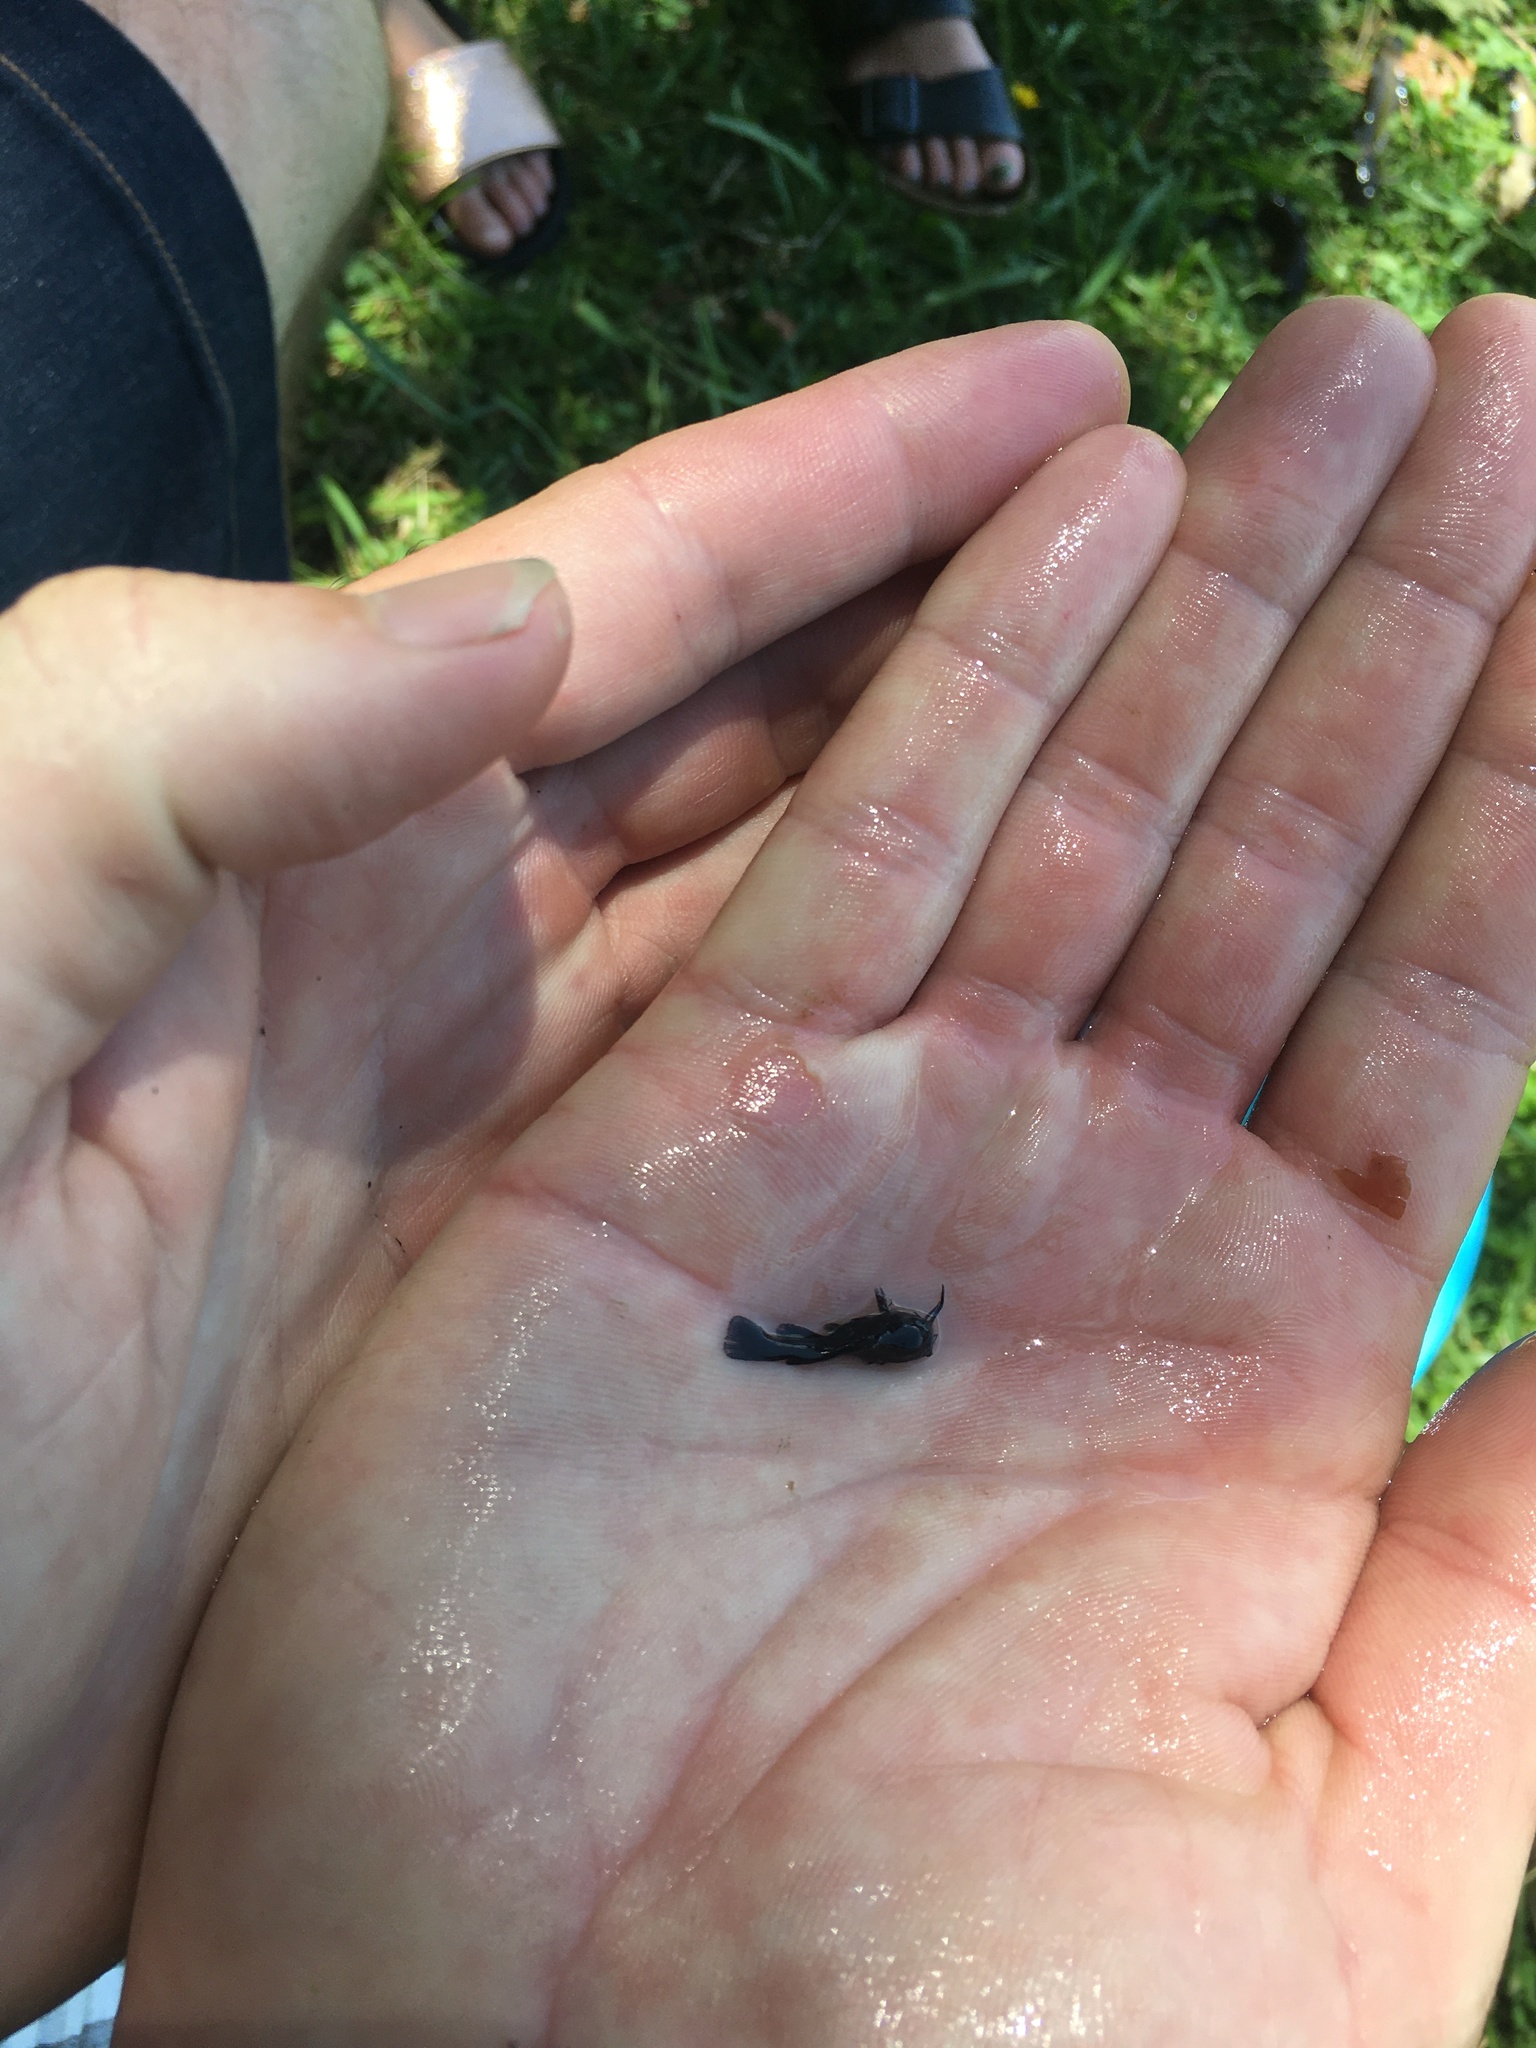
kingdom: Animalia
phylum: Chordata
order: Siluriformes
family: Ictaluridae
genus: Ameiurus
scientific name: Ameiurus nebulosus
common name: Brown bullhead
